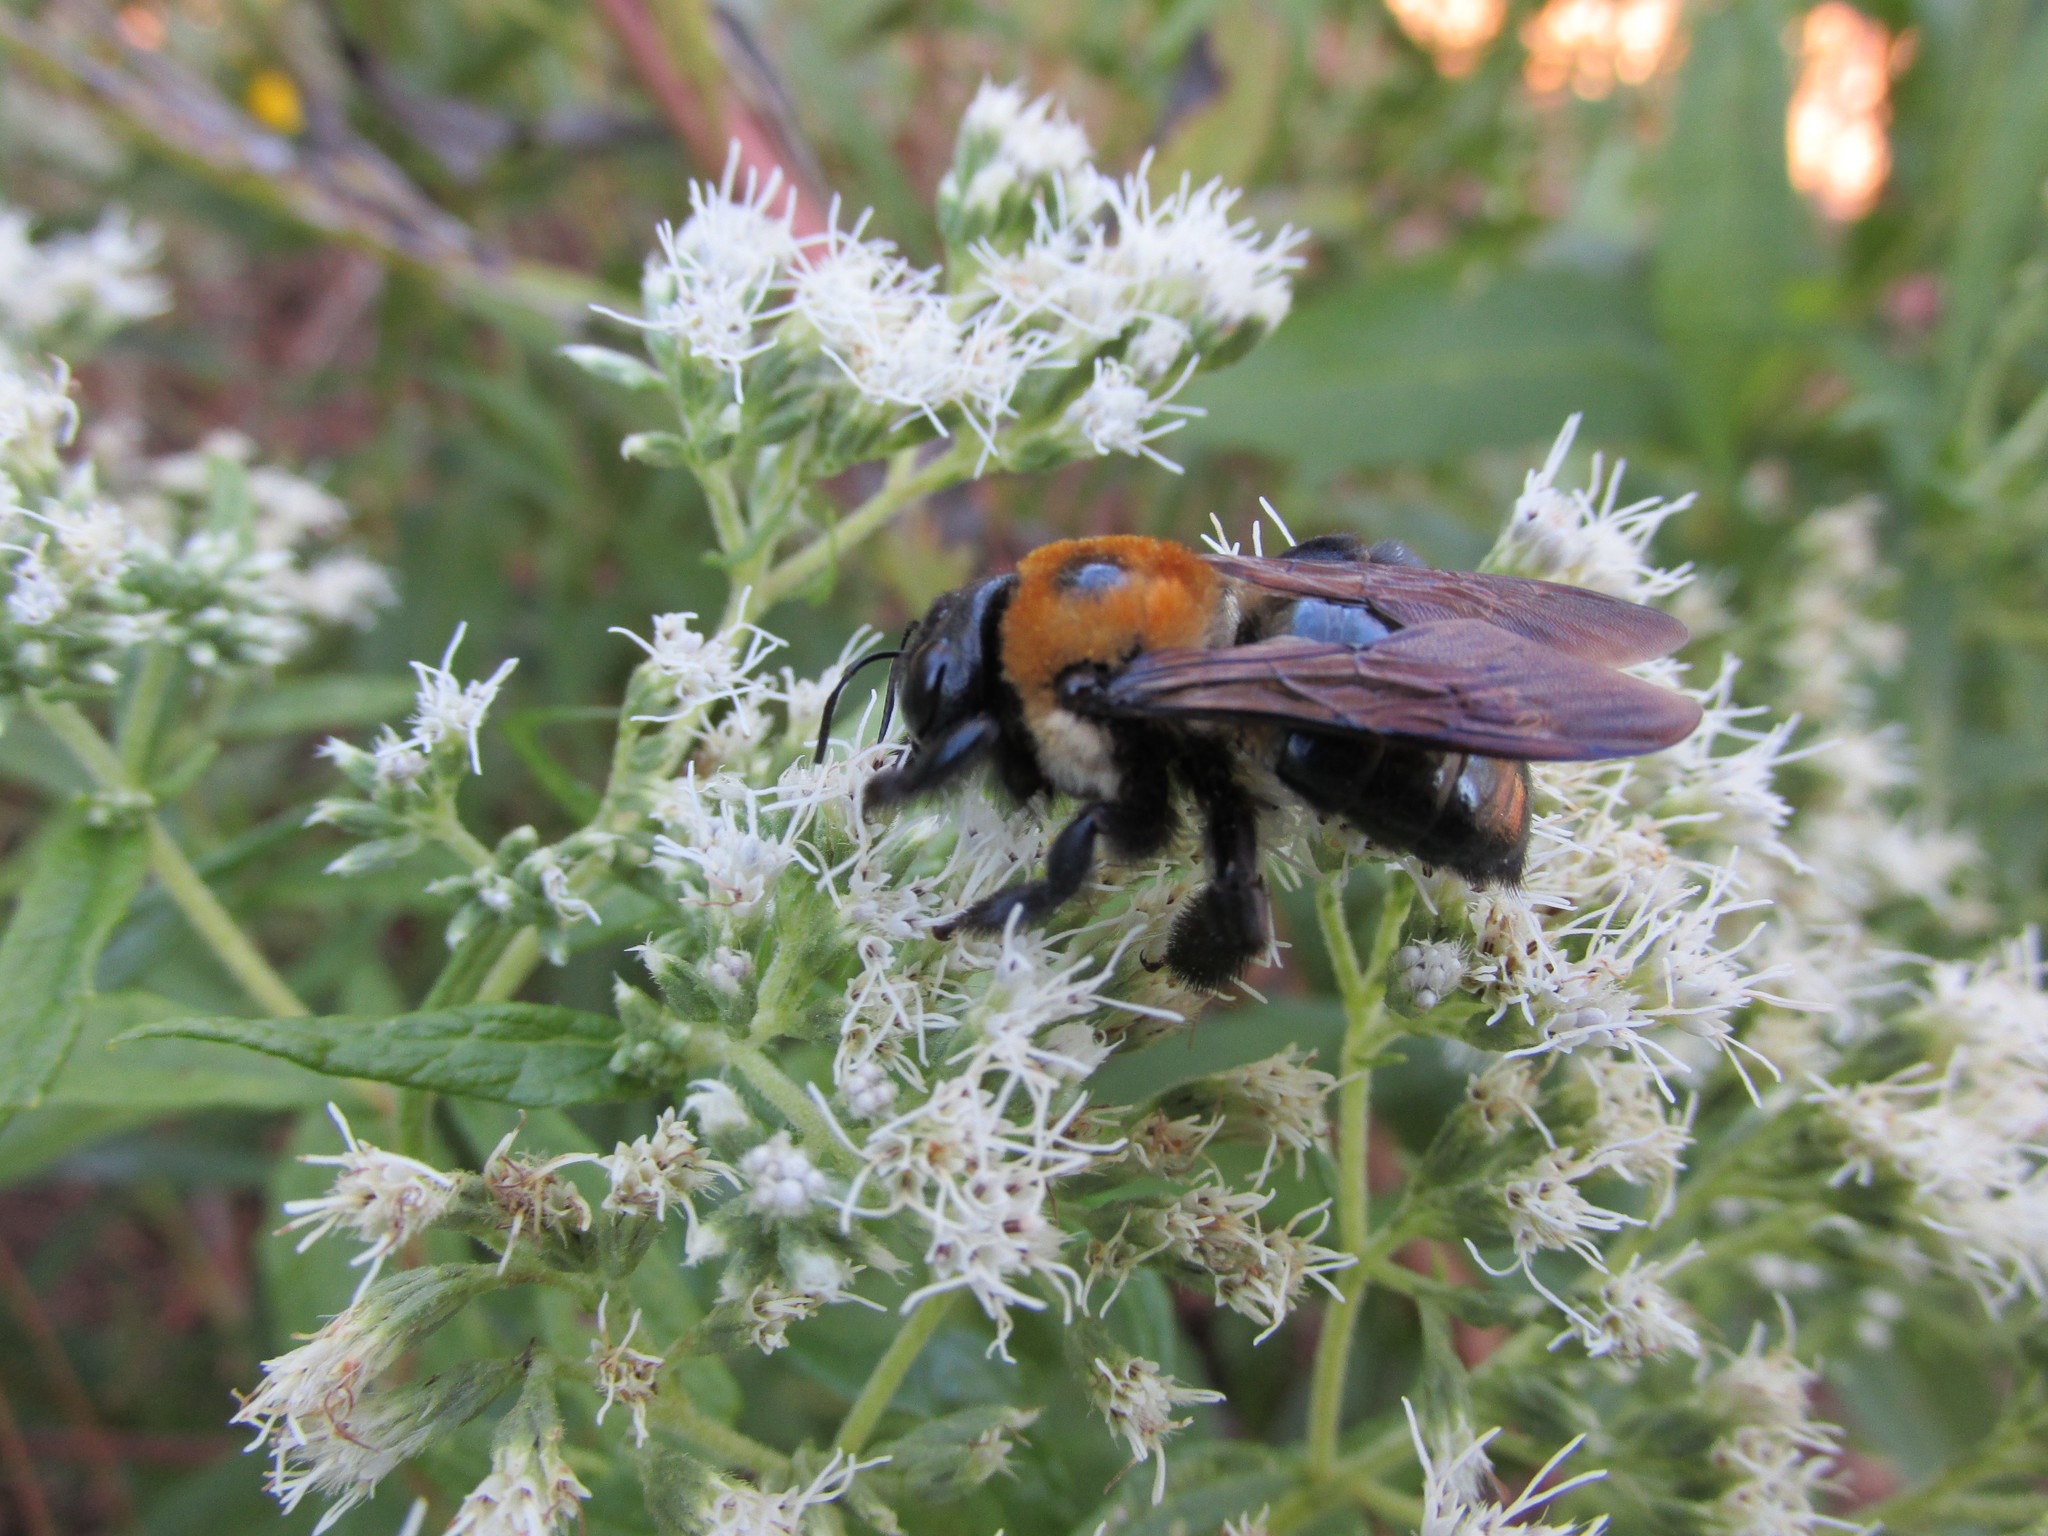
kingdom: Animalia
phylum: Arthropoda
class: Insecta
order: Hymenoptera
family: Apidae
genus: Xylocopa
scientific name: Xylocopa virginica
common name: Carpenter bee
